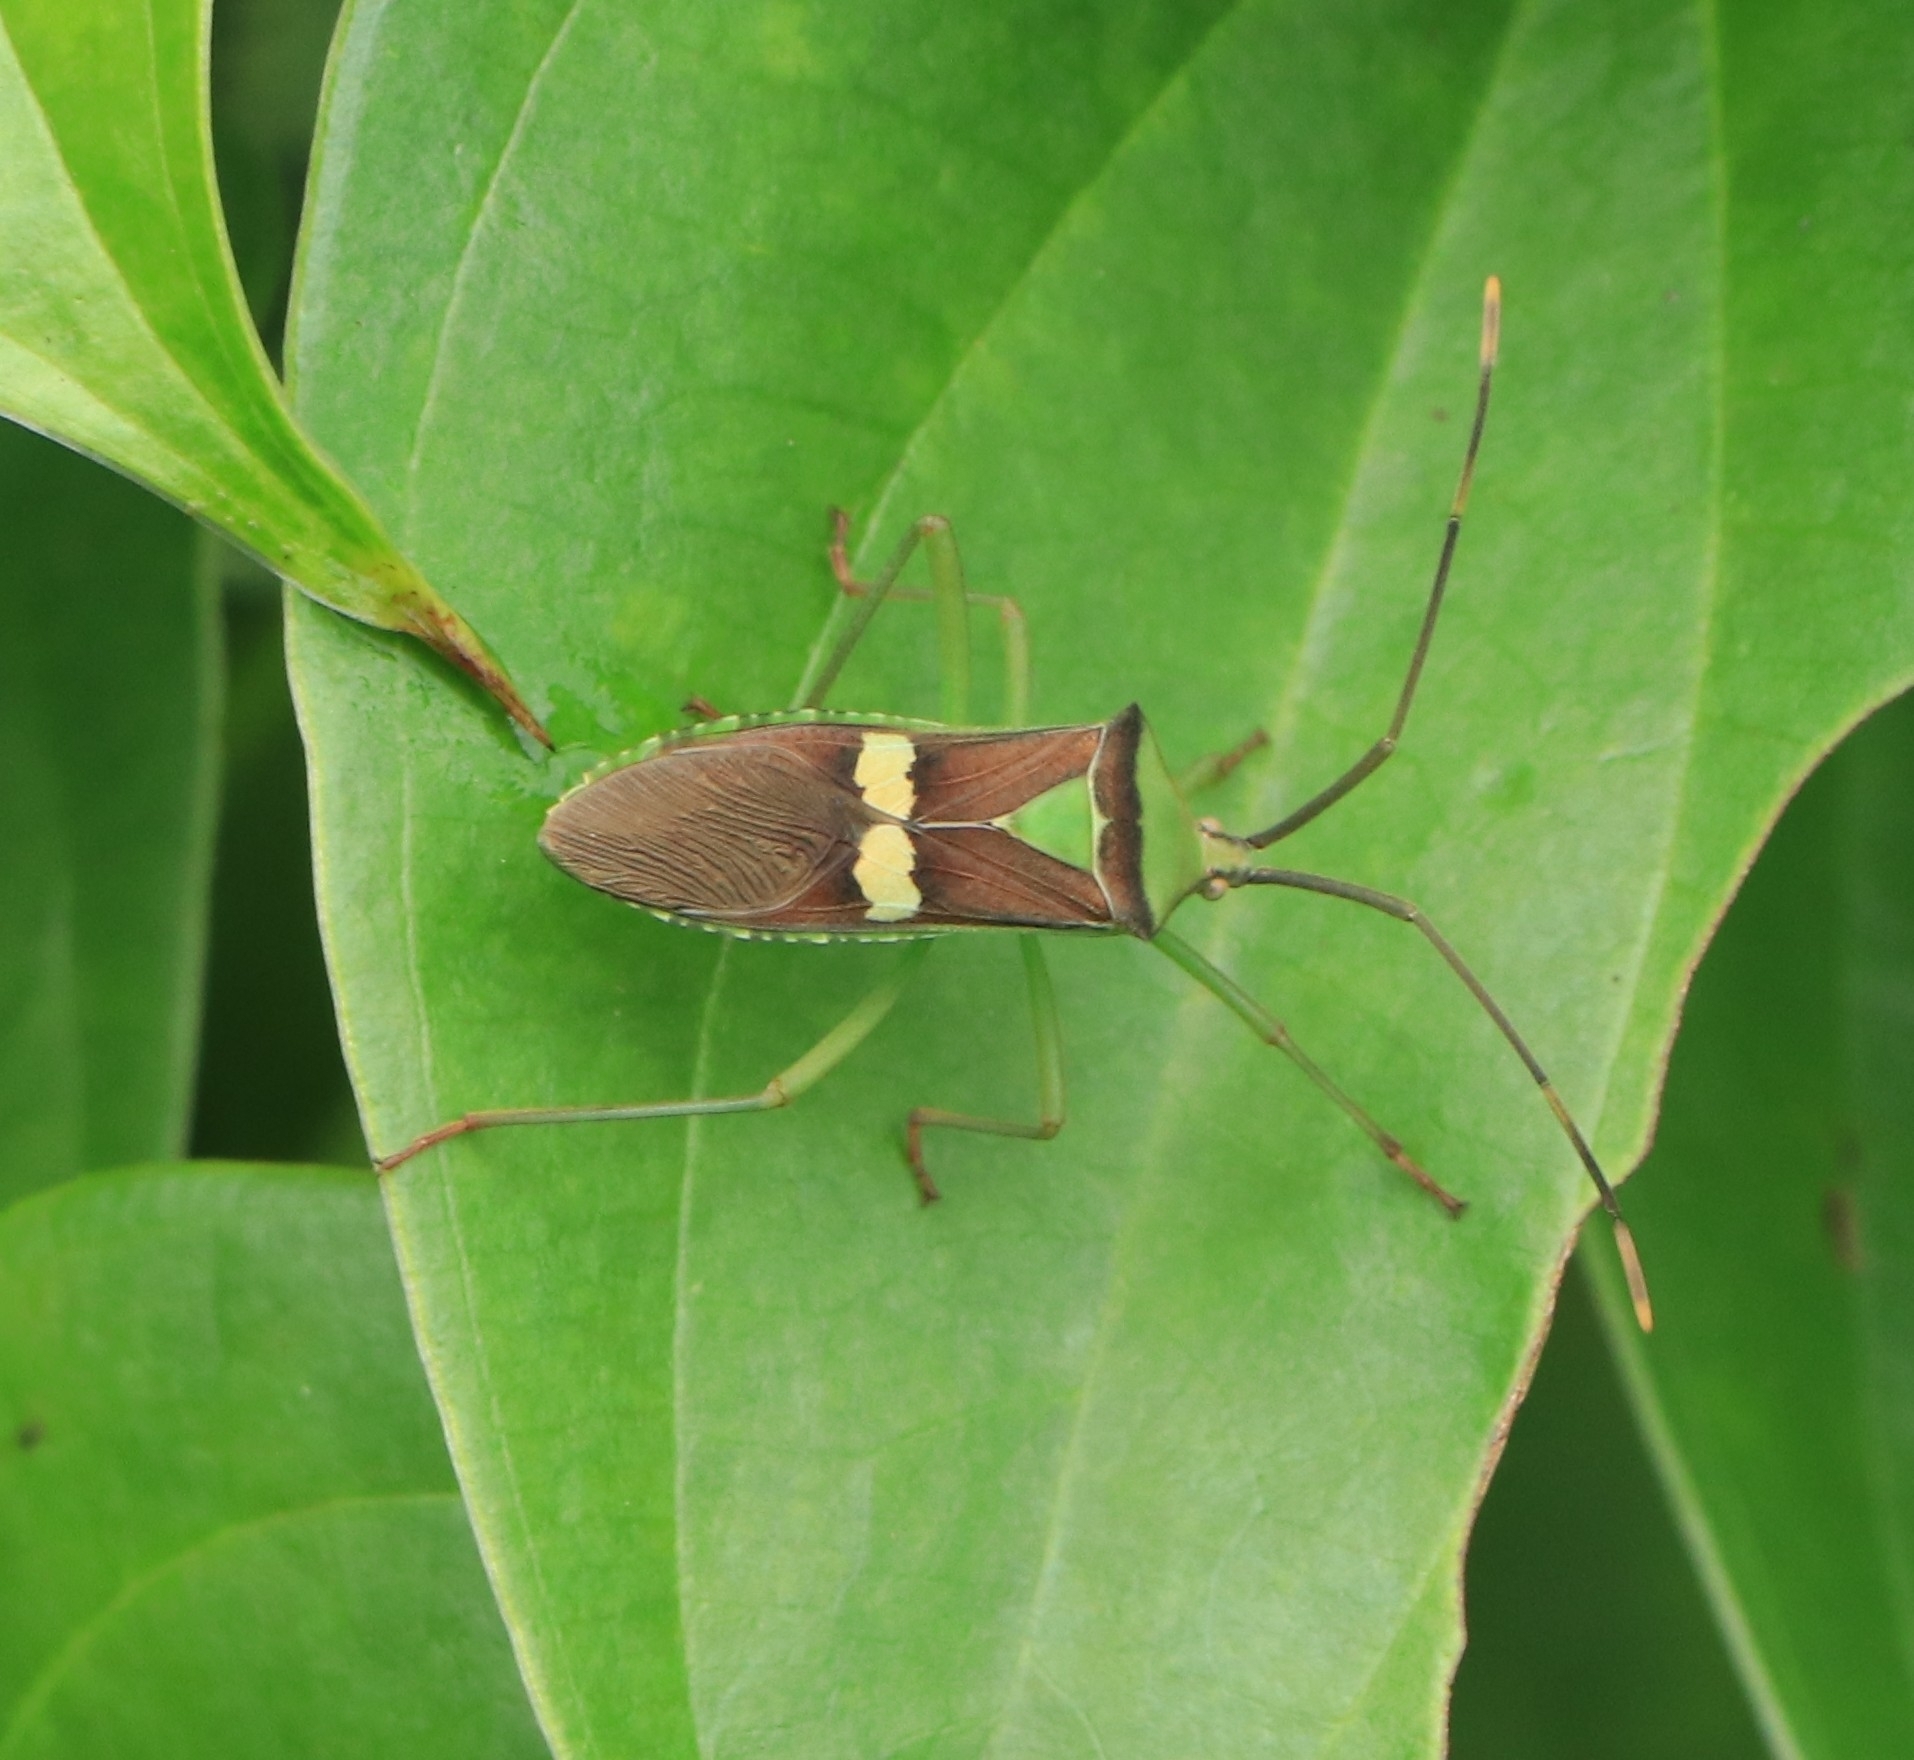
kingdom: Animalia
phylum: Arthropoda
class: Insecta
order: Hemiptera
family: Coreidae
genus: Prismatocerus
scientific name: Prismatocerus signatus
